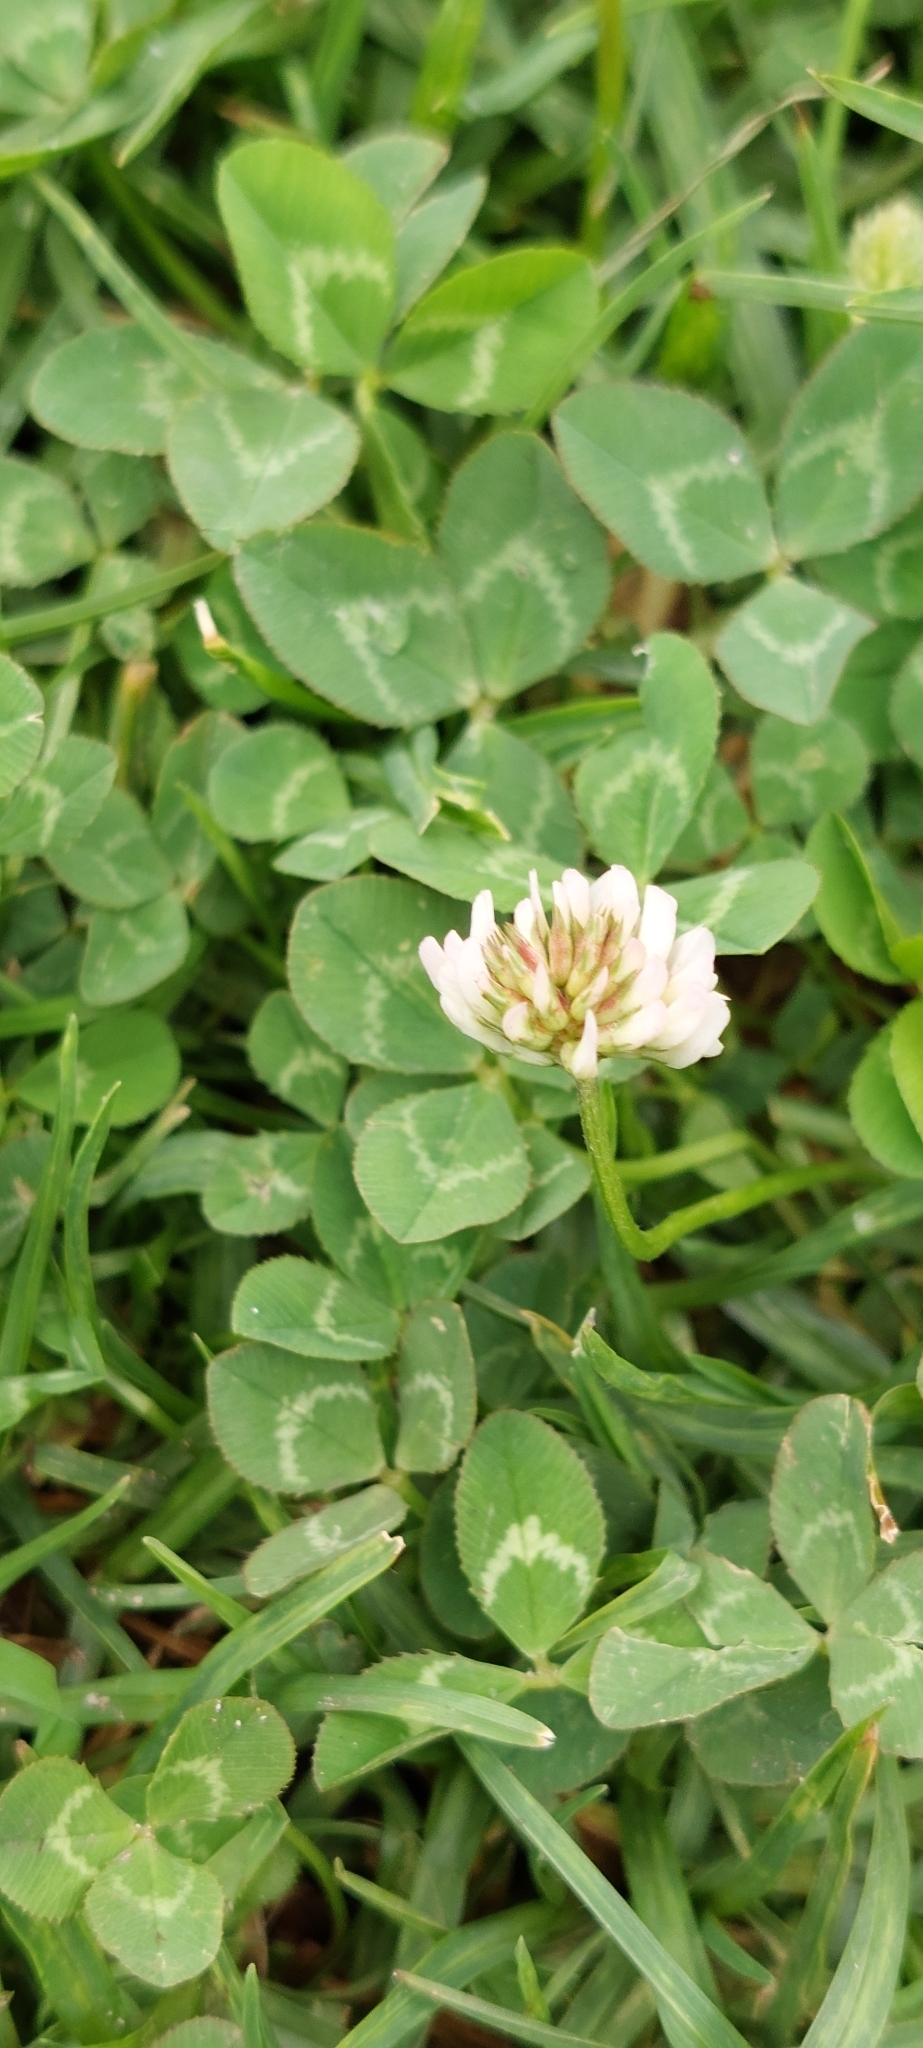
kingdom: Plantae
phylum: Tracheophyta
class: Magnoliopsida
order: Fabales
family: Fabaceae
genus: Trifolium
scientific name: Trifolium repens
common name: White clover
